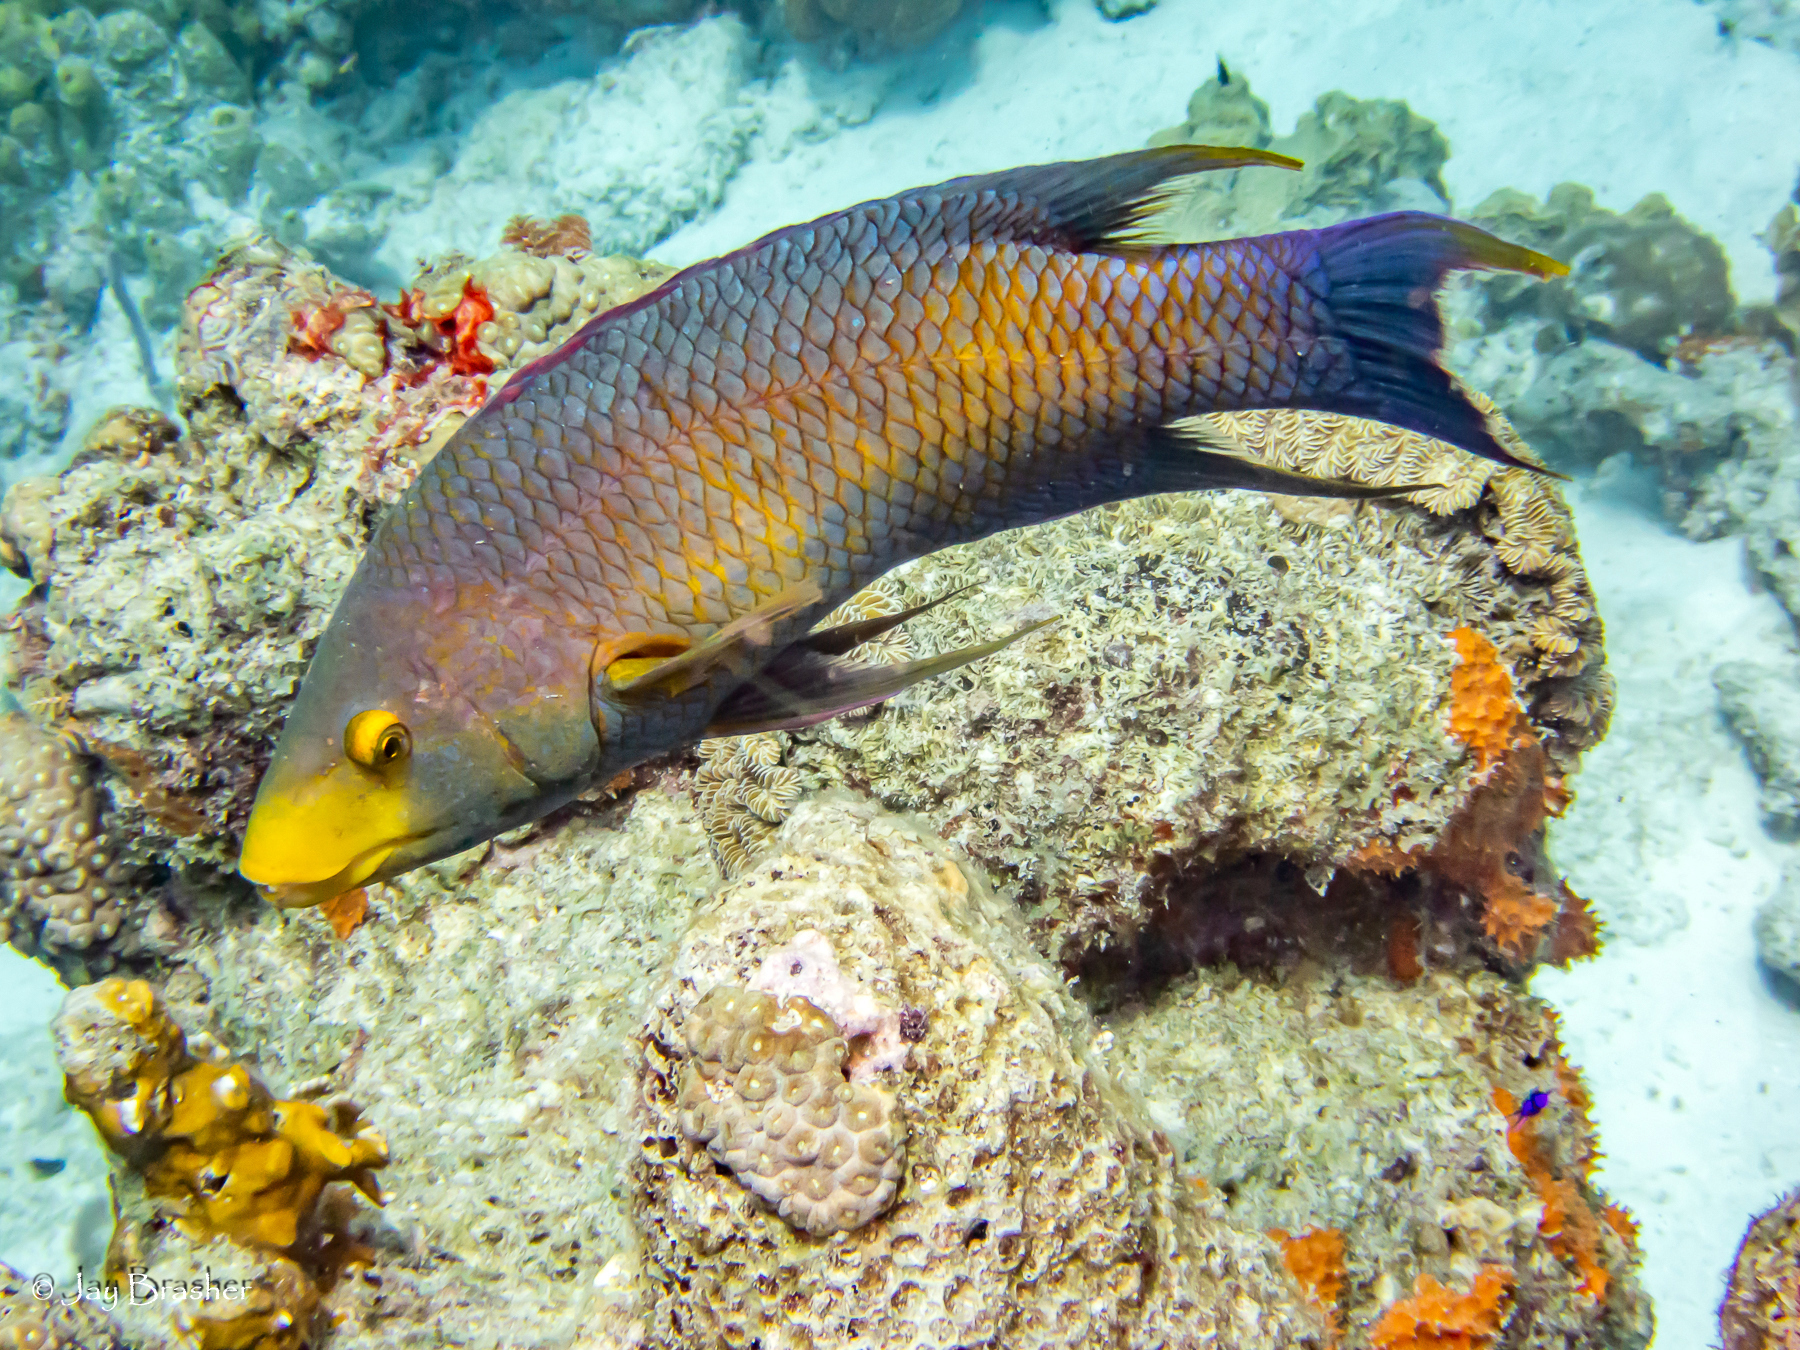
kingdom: Animalia
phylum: Chordata
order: Perciformes
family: Labridae
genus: Bodianus
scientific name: Bodianus rufus
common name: Spanish hogfish
